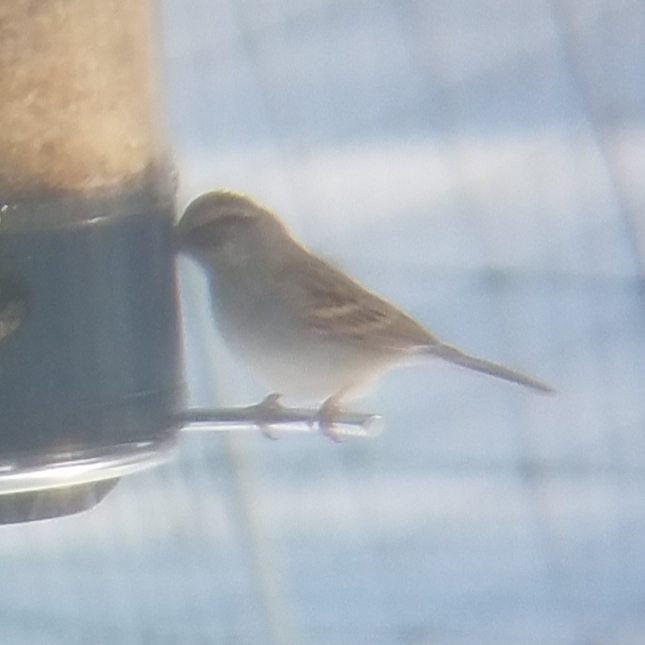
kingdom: Animalia
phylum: Chordata
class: Aves
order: Passeriformes
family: Passerellidae
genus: Spizella
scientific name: Spizella passerina
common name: Chipping sparrow
